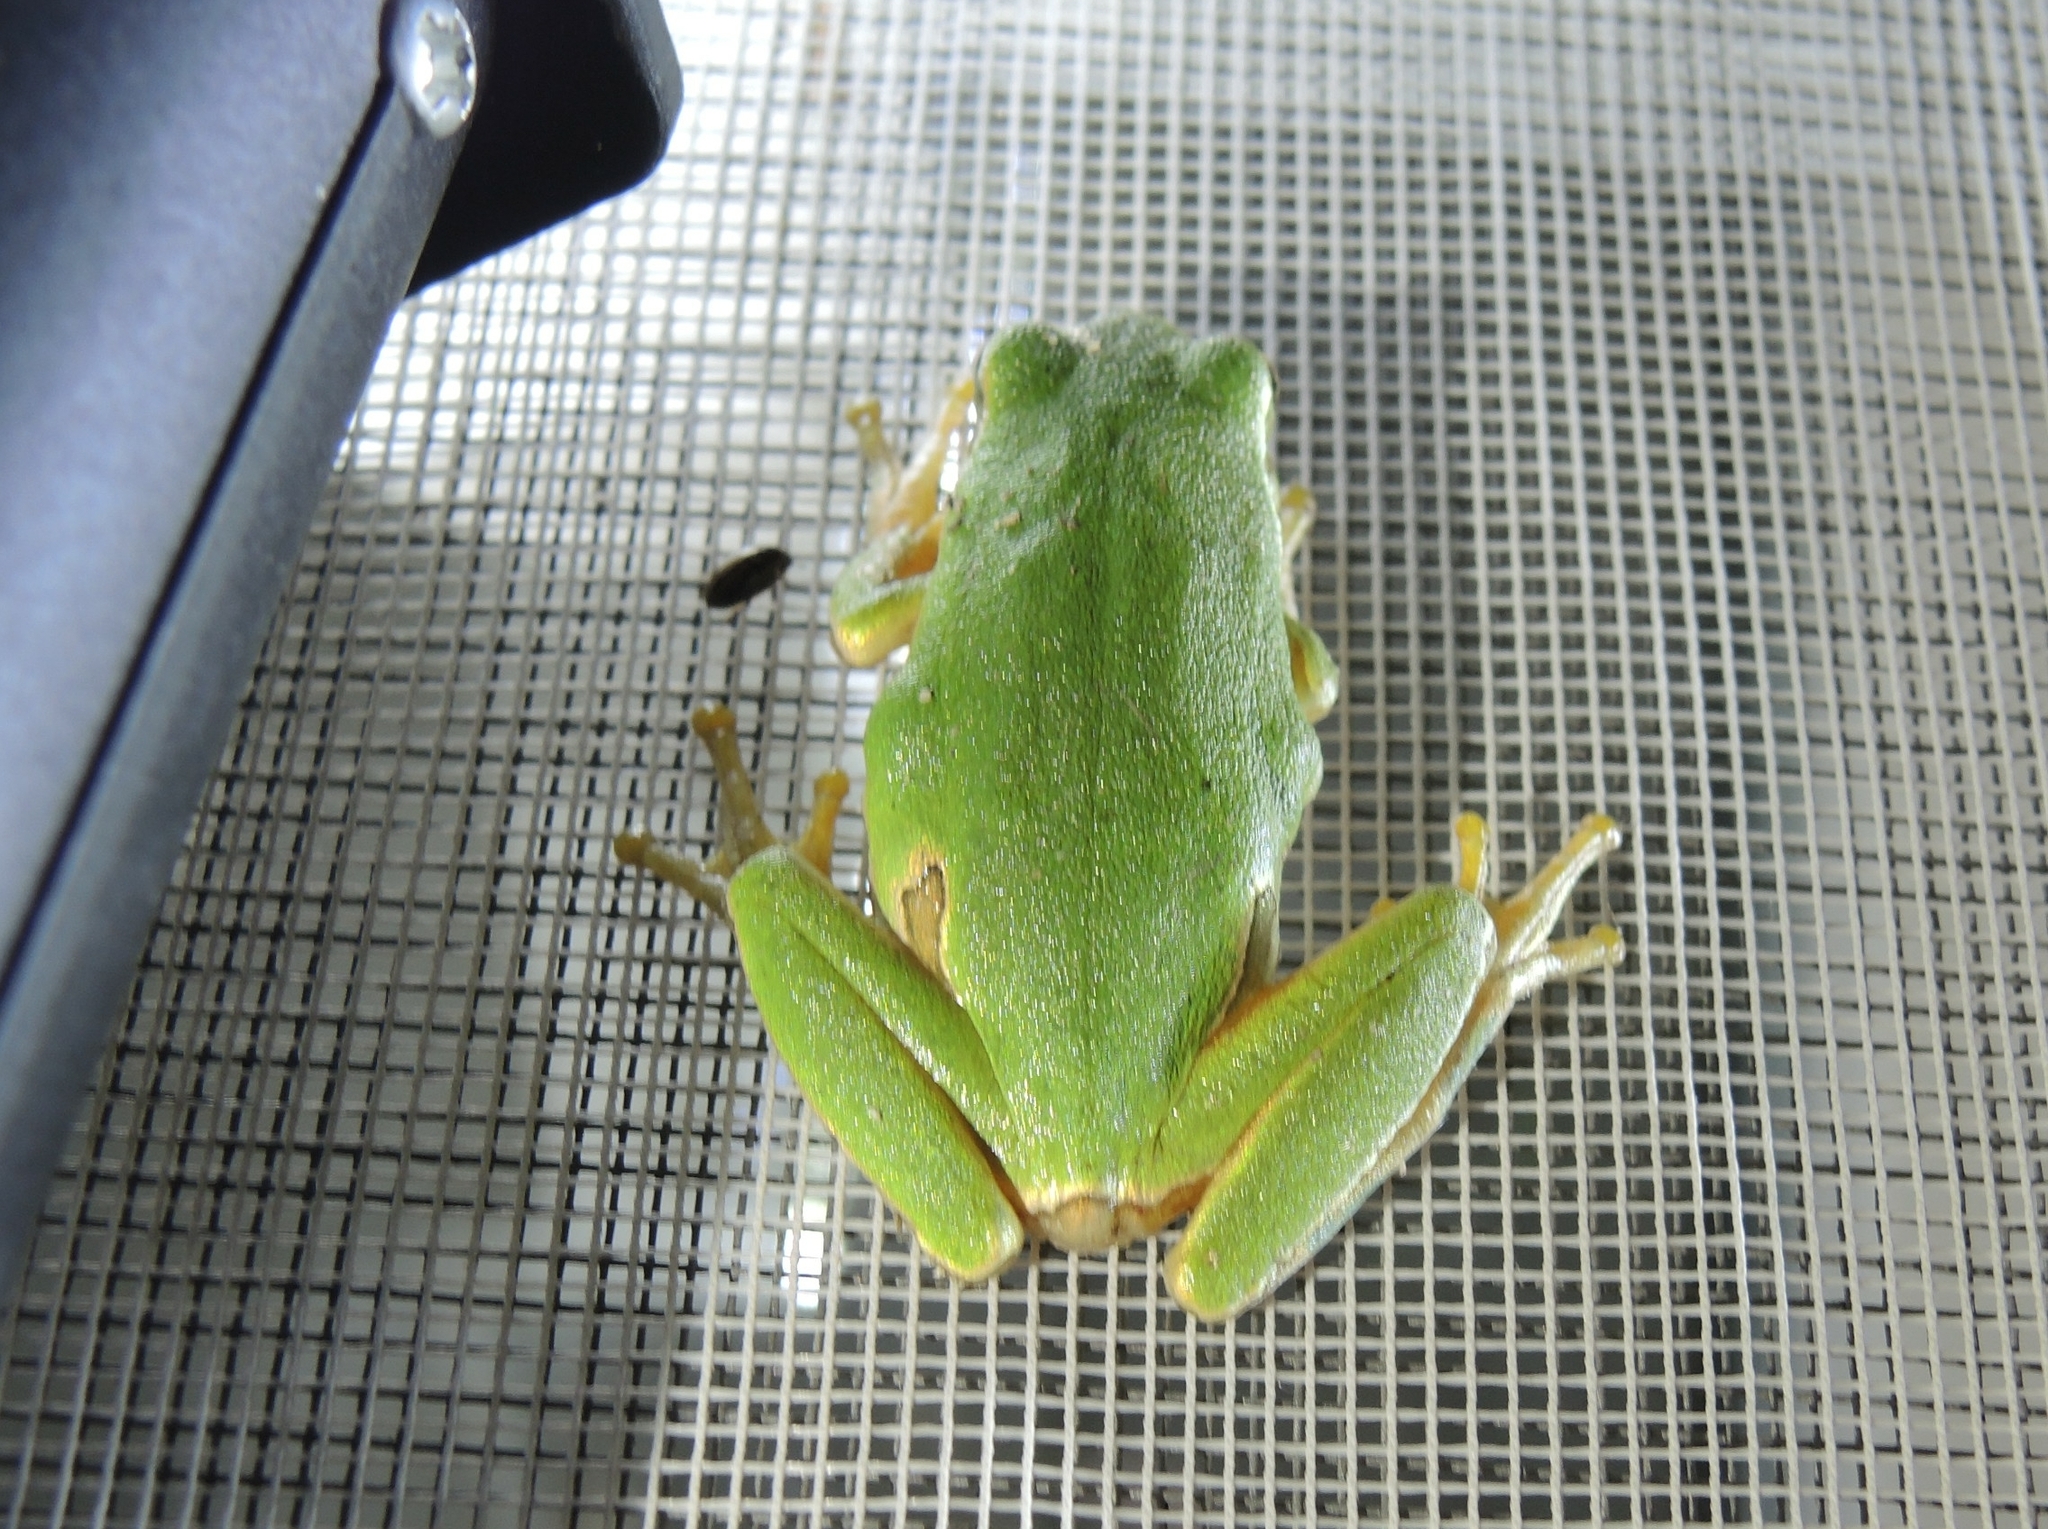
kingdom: Animalia
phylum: Chordata
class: Amphibia
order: Anura
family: Hylidae
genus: Hyla
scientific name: Hyla orientalis
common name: Caucasian treefrog
